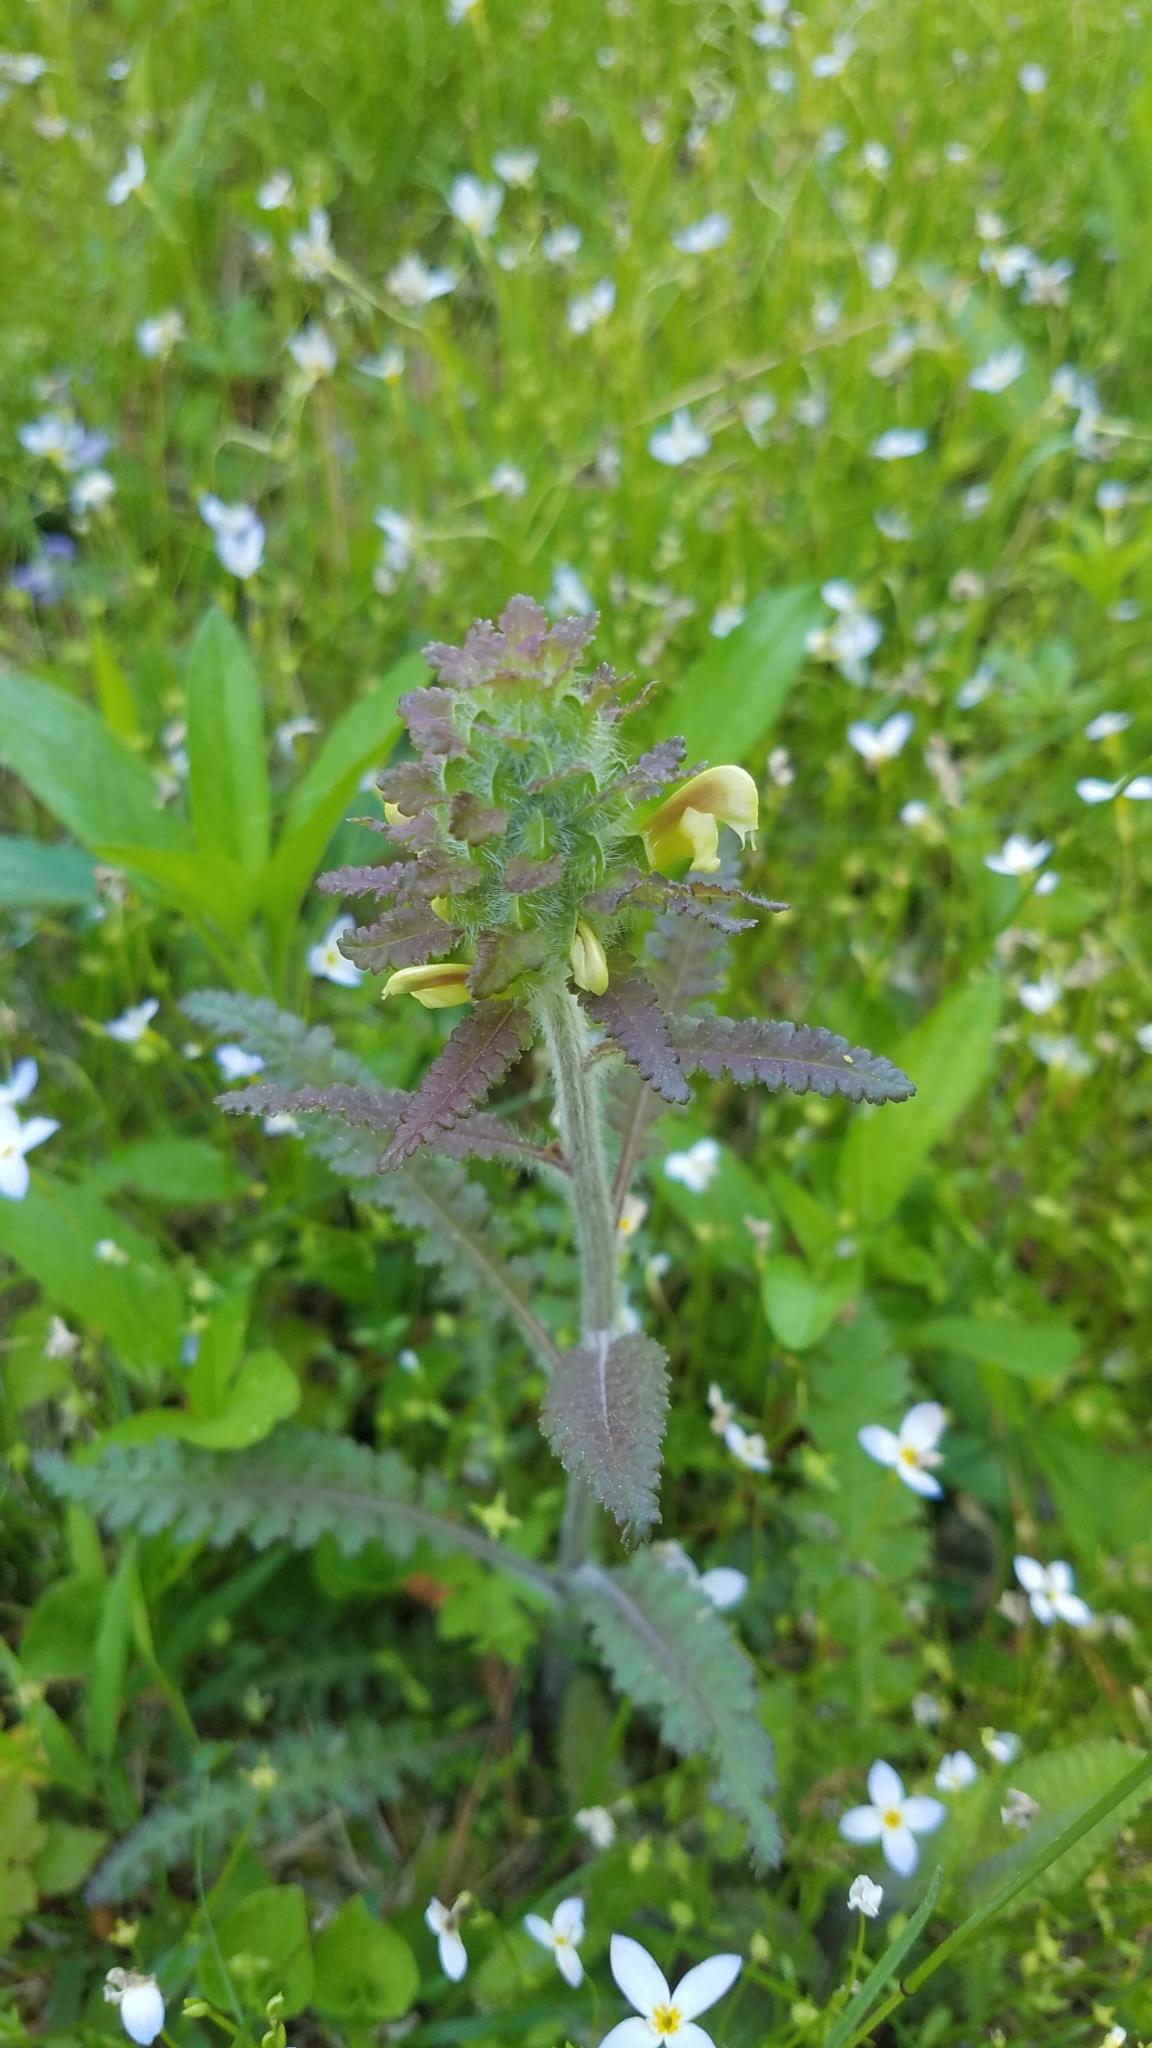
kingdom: Plantae
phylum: Tracheophyta
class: Magnoliopsida
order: Lamiales
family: Orobanchaceae
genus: Pedicularis
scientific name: Pedicularis canadensis
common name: Early lousewort
